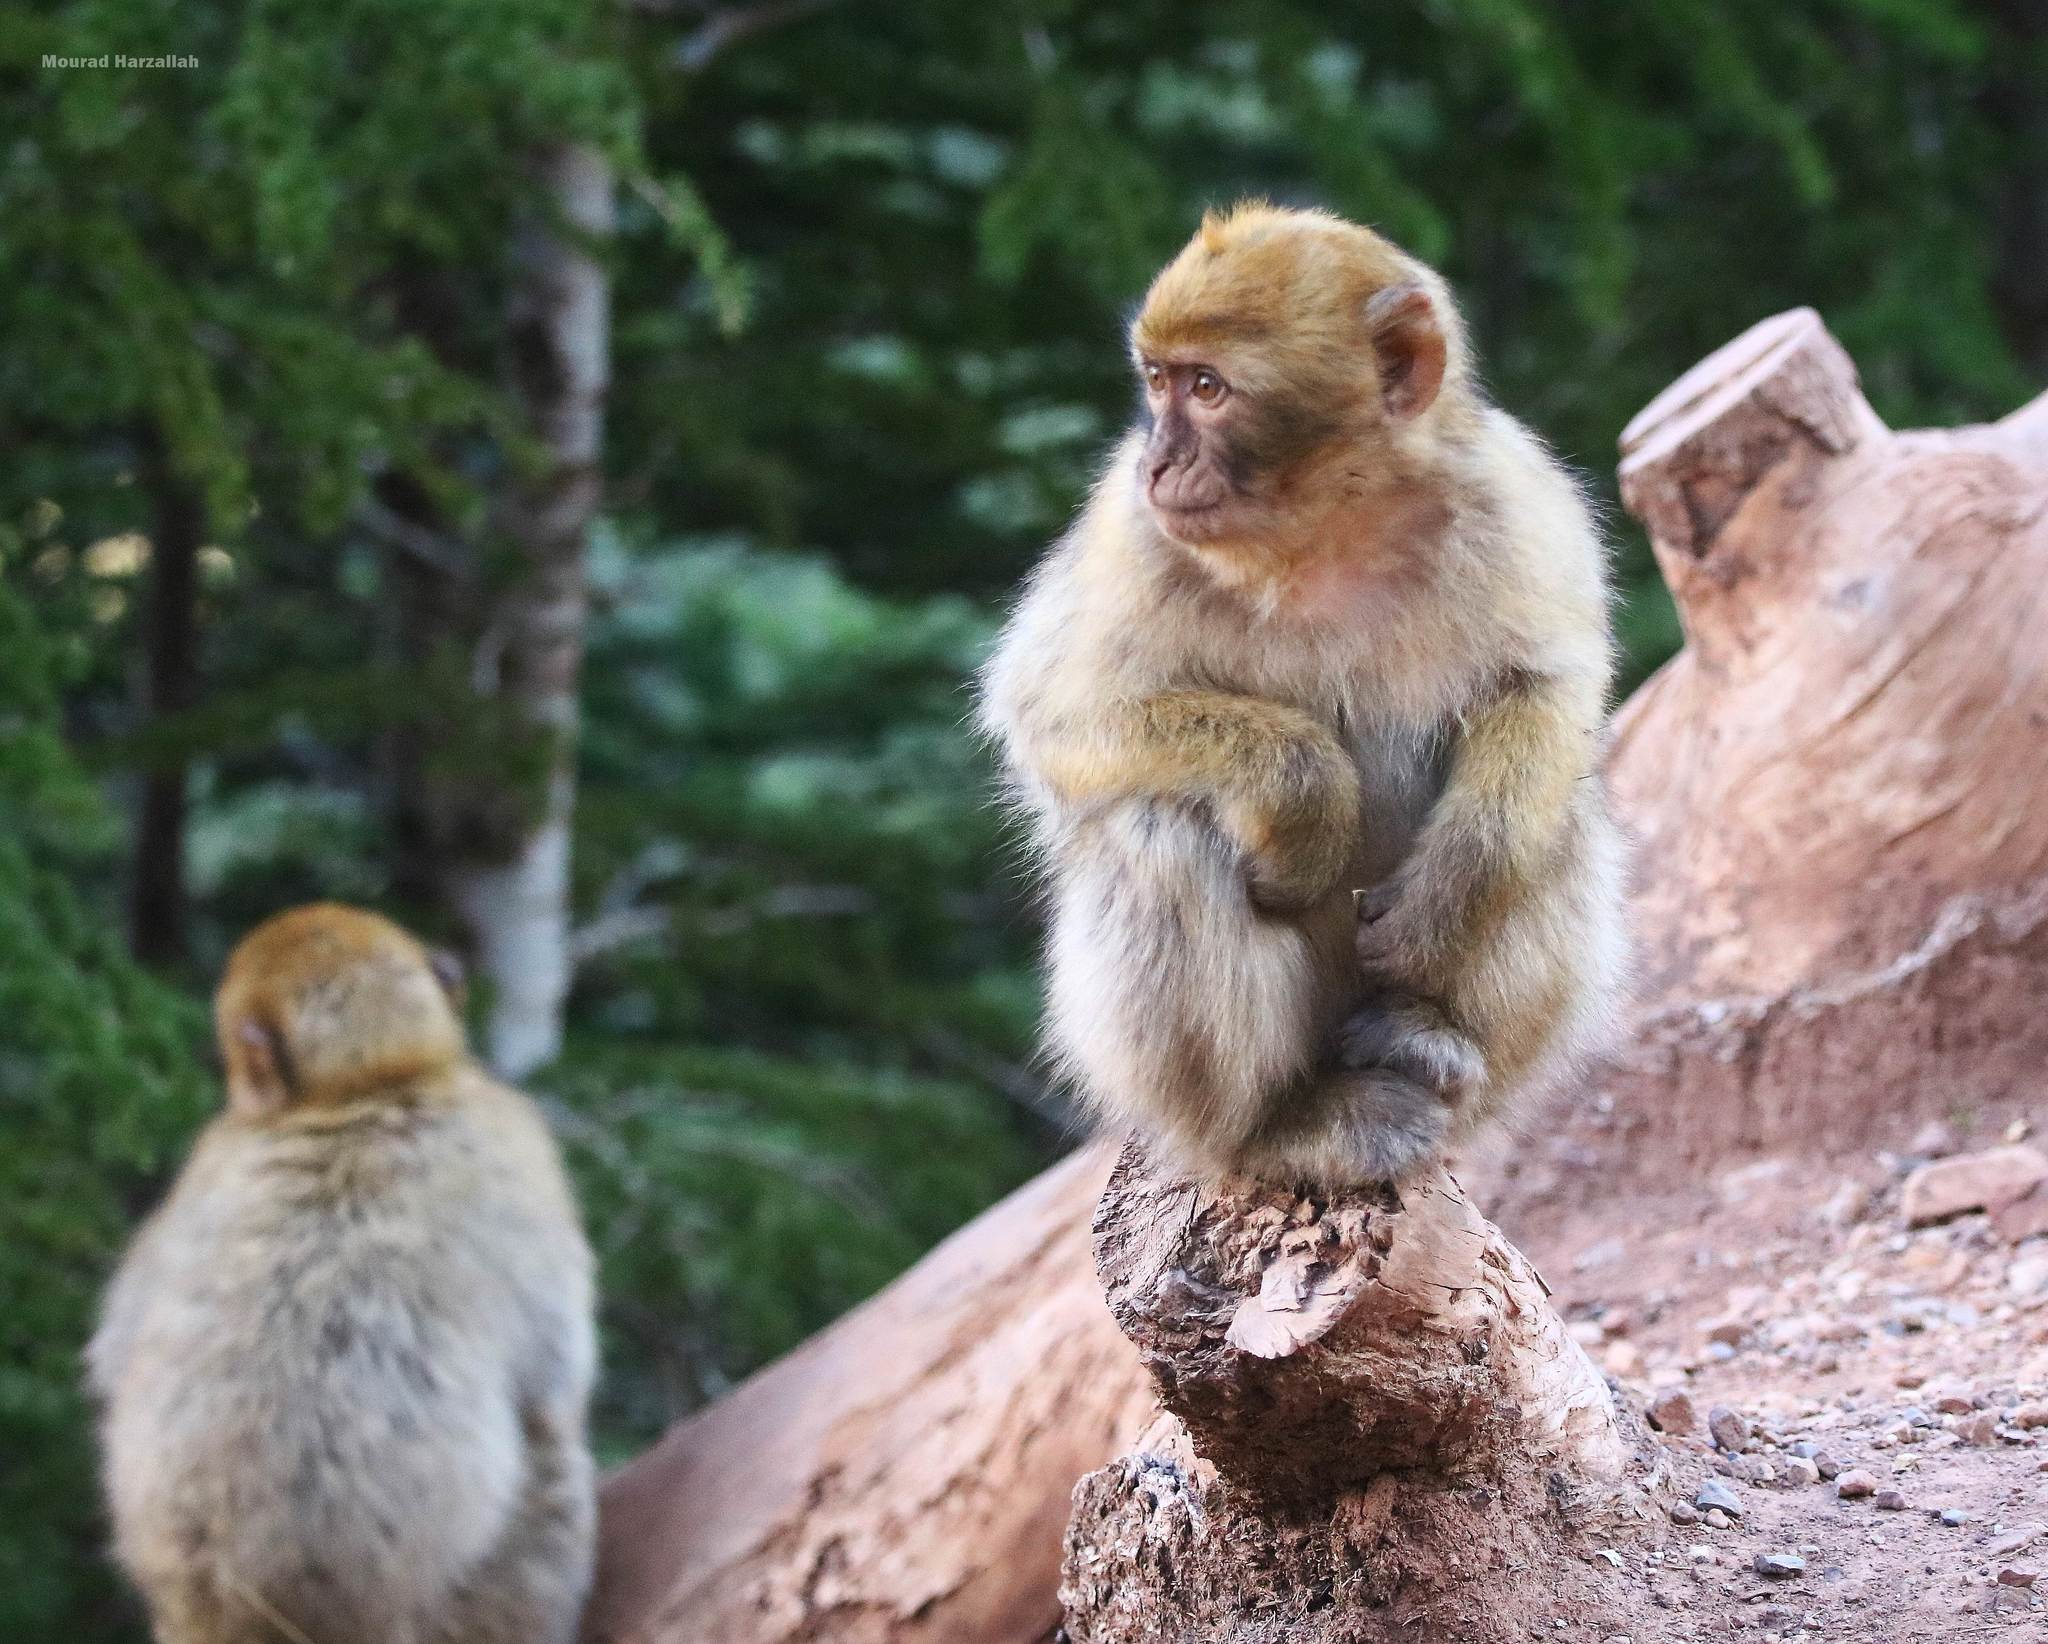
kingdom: Animalia
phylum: Chordata
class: Mammalia
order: Primates
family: Cercopithecidae
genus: Macaca
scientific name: Macaca sylvanus
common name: Barbary macaque
